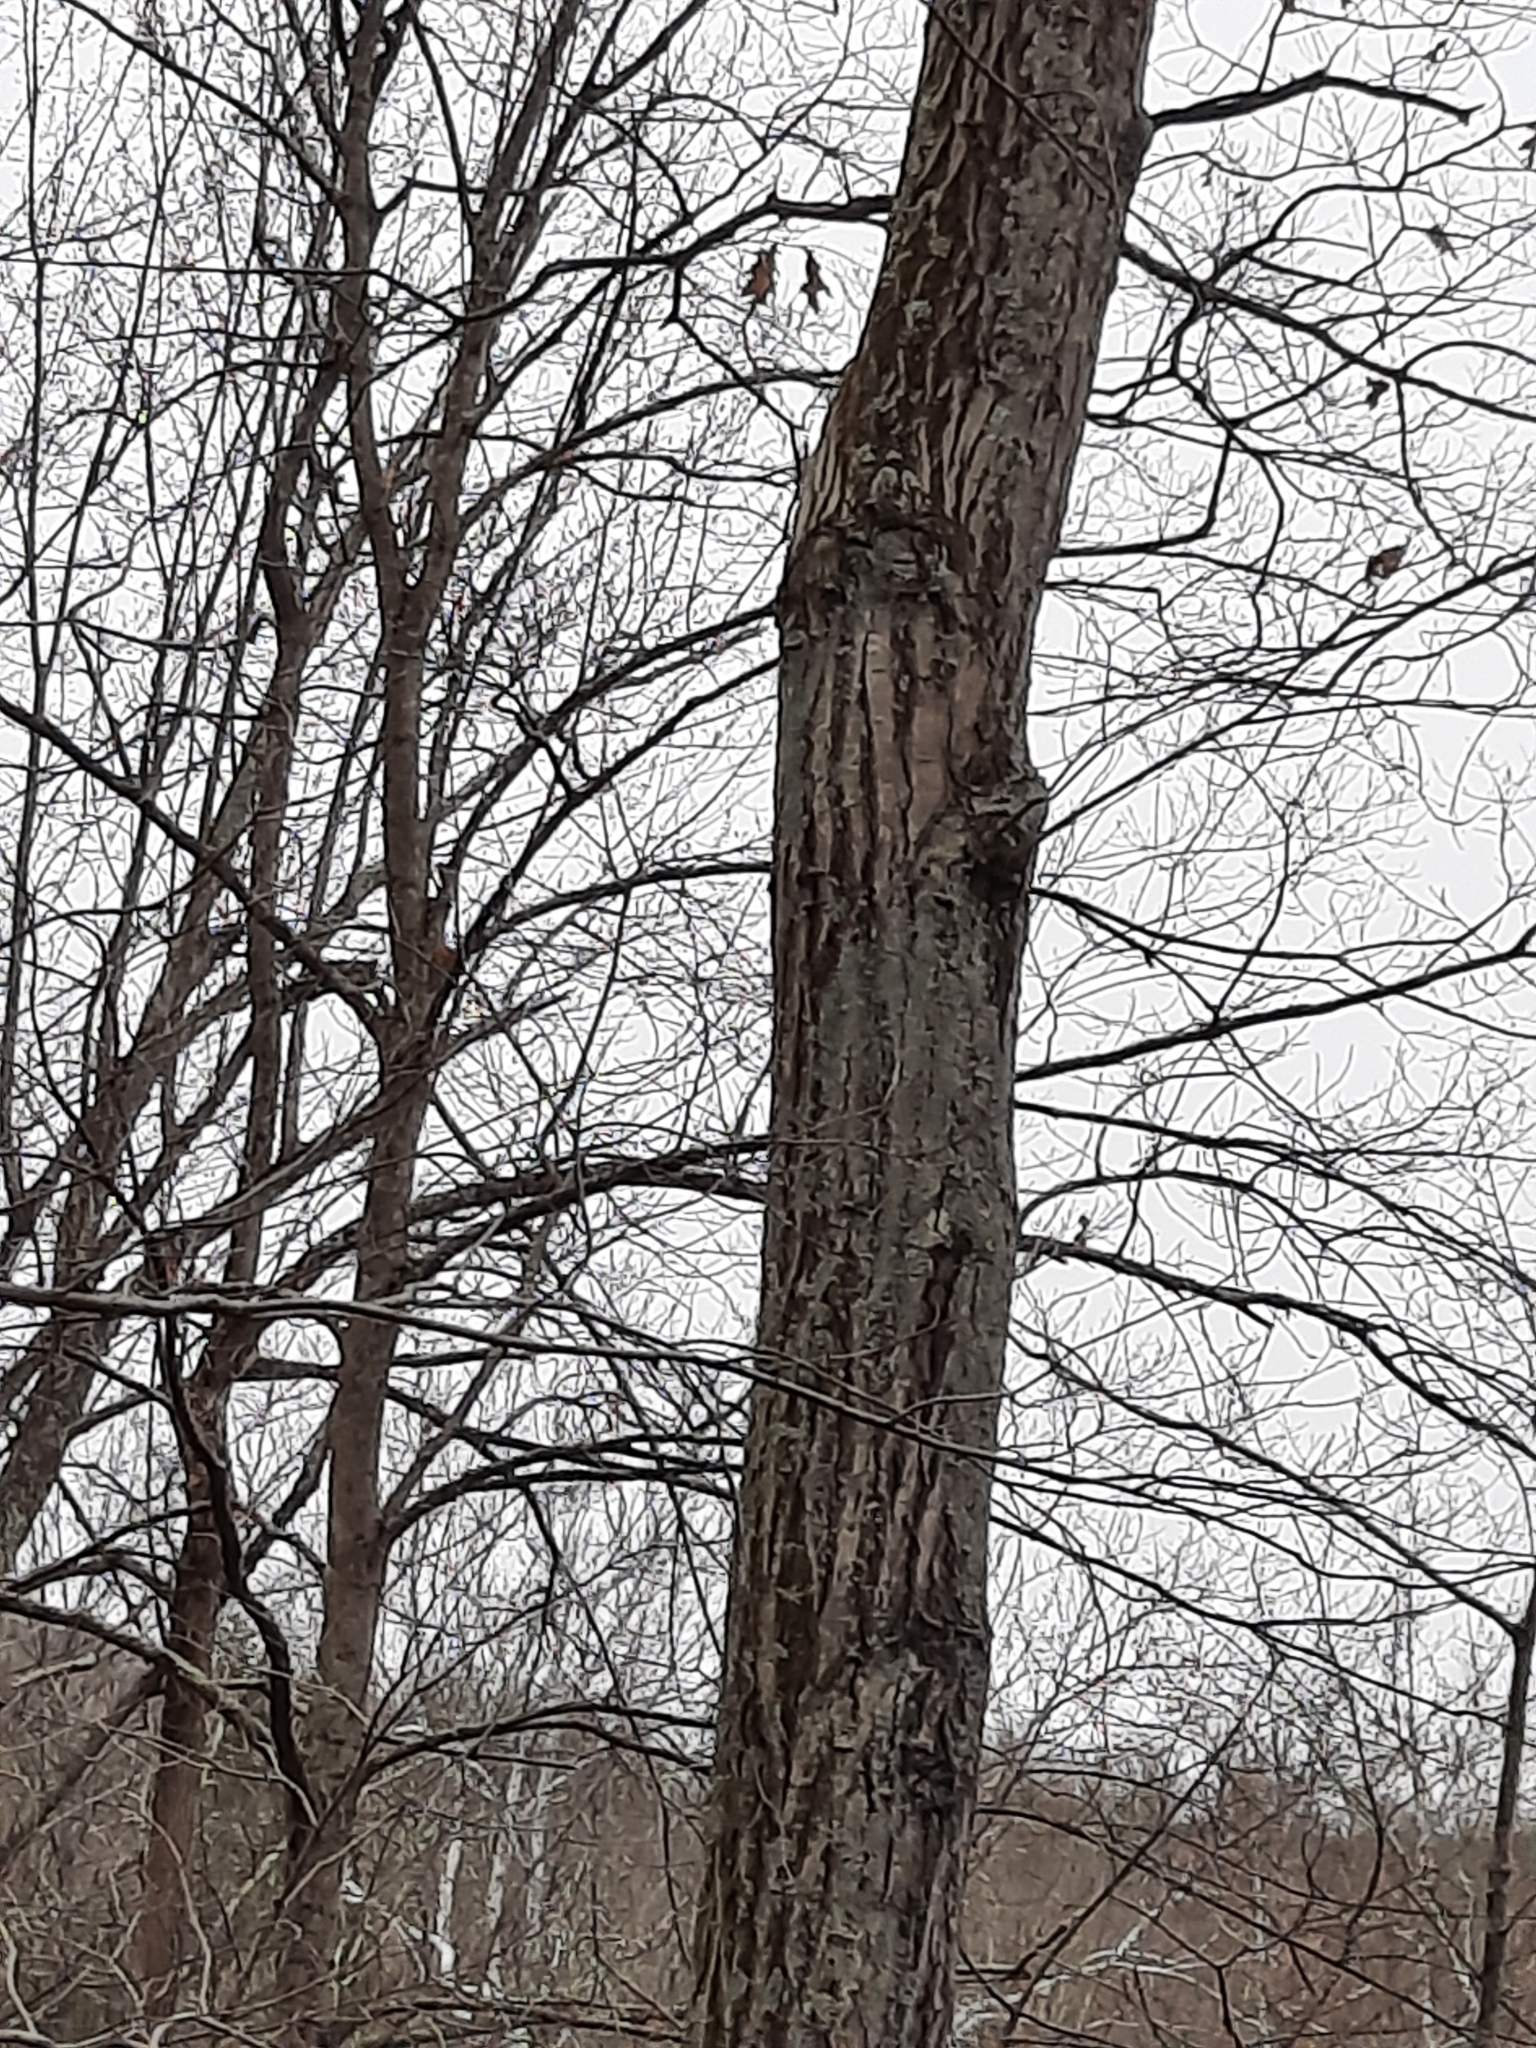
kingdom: Plantae
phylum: Tracheophyta
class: Magnoliopsida
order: Fagales
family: Fagaceae
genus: Quercus
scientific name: Quercus rubra
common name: Red oak
